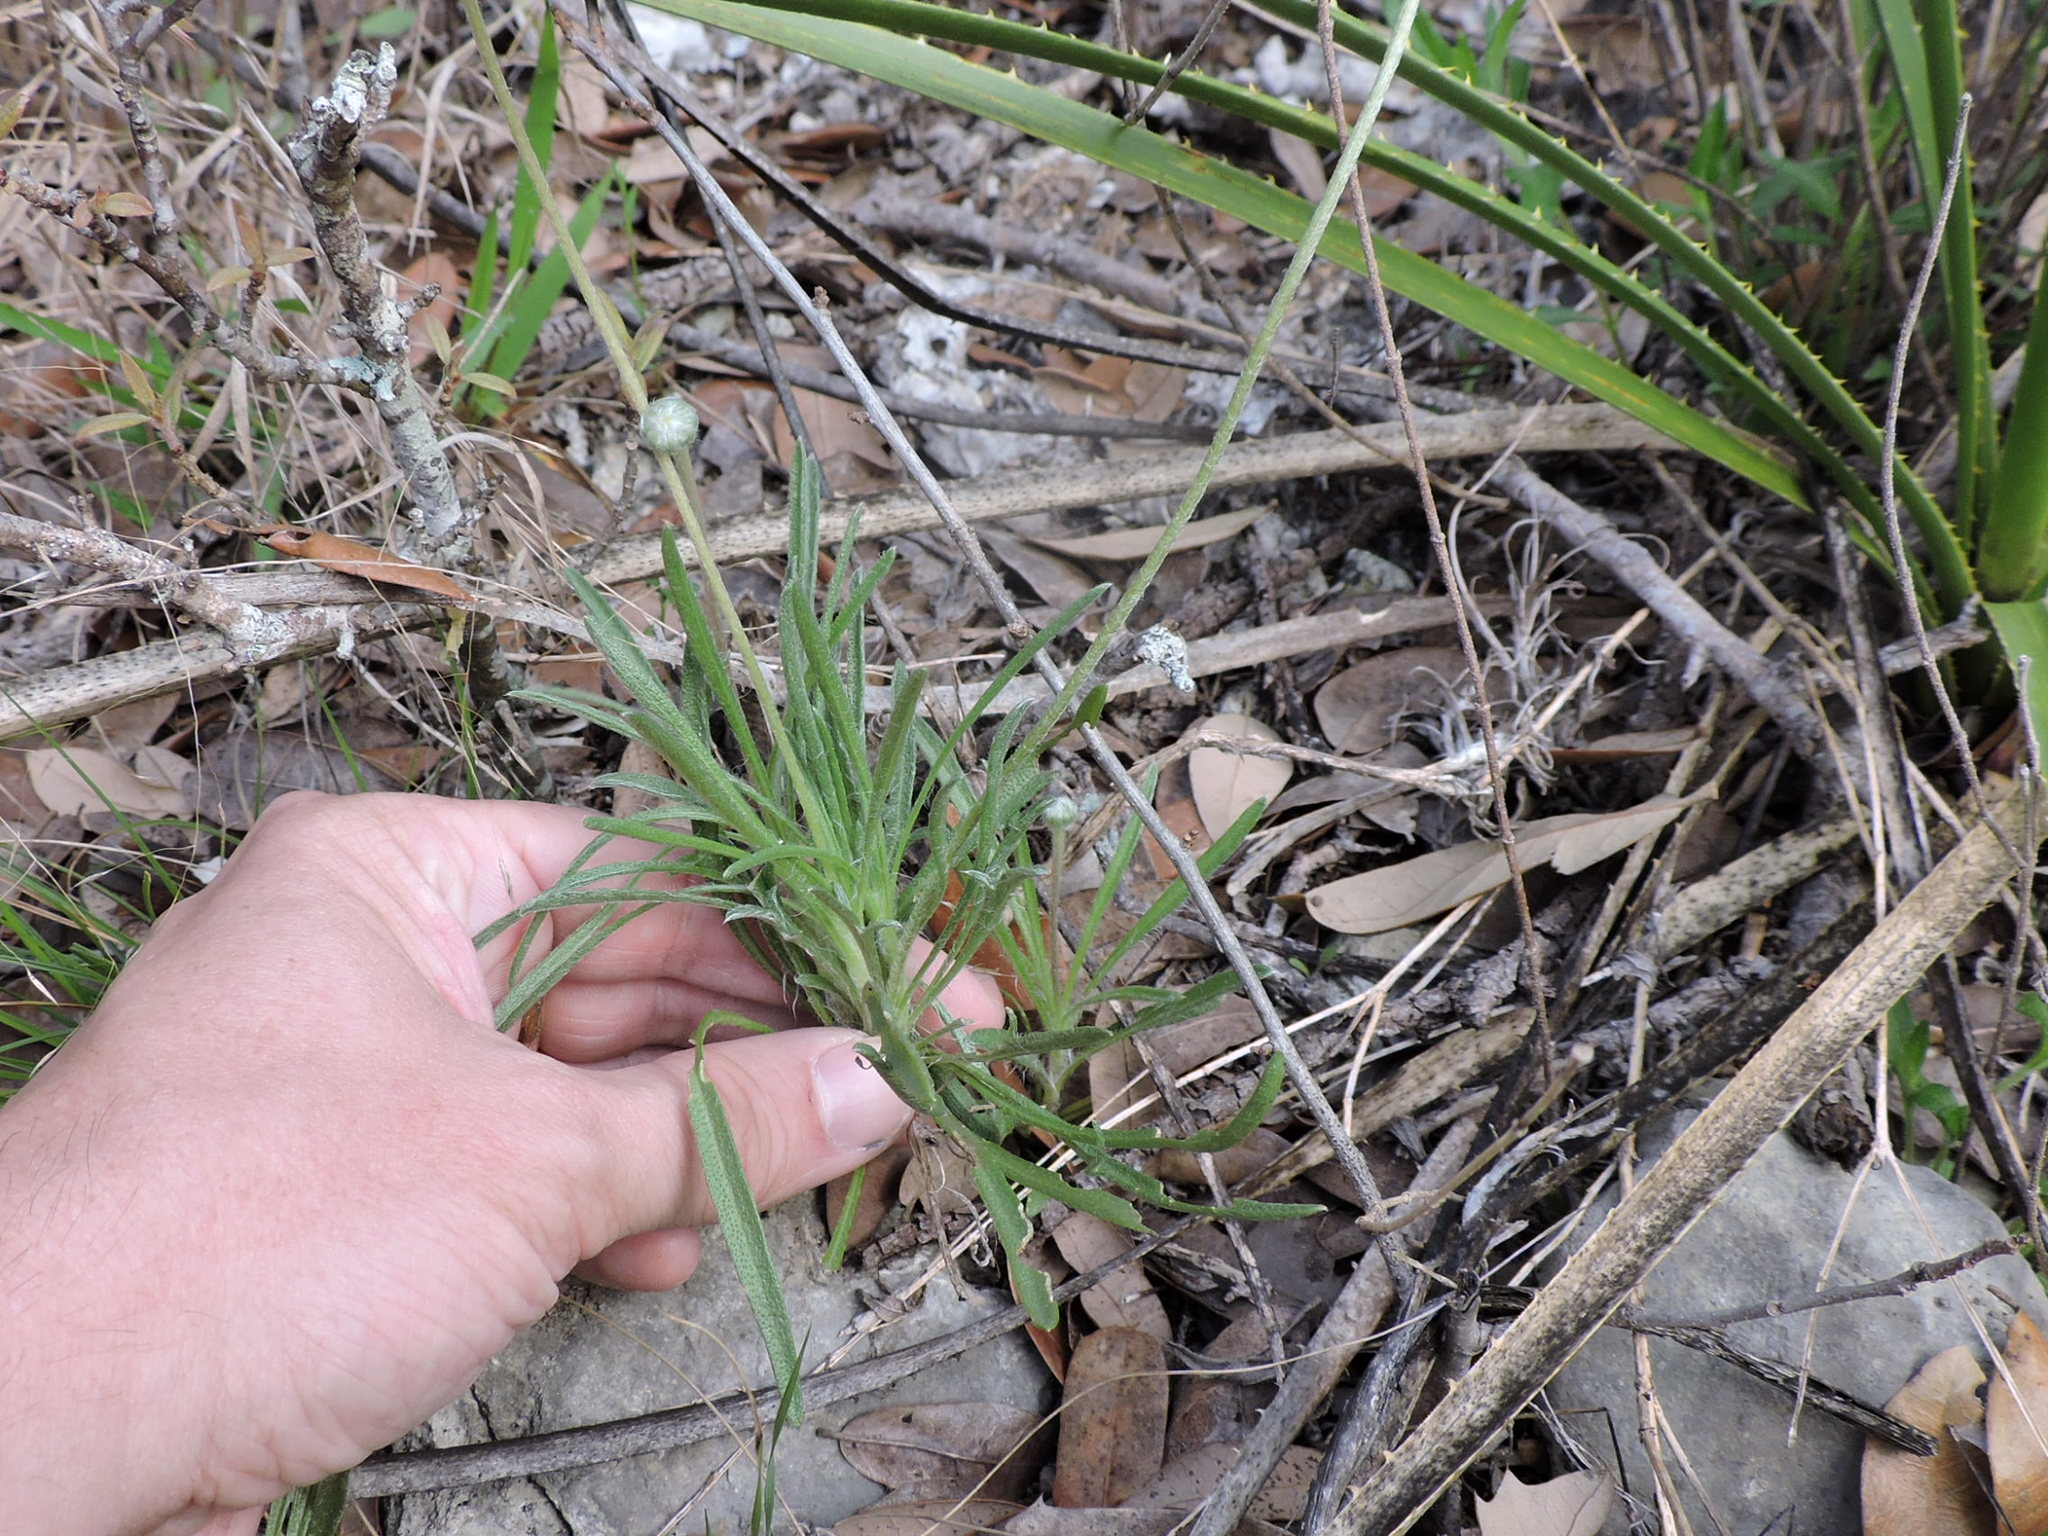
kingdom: Plantae
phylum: Tracheophyta
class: Magnoliopsida
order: Asterales
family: Asteraceae
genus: Tetraneuris
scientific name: Tetraneuris scaposa
